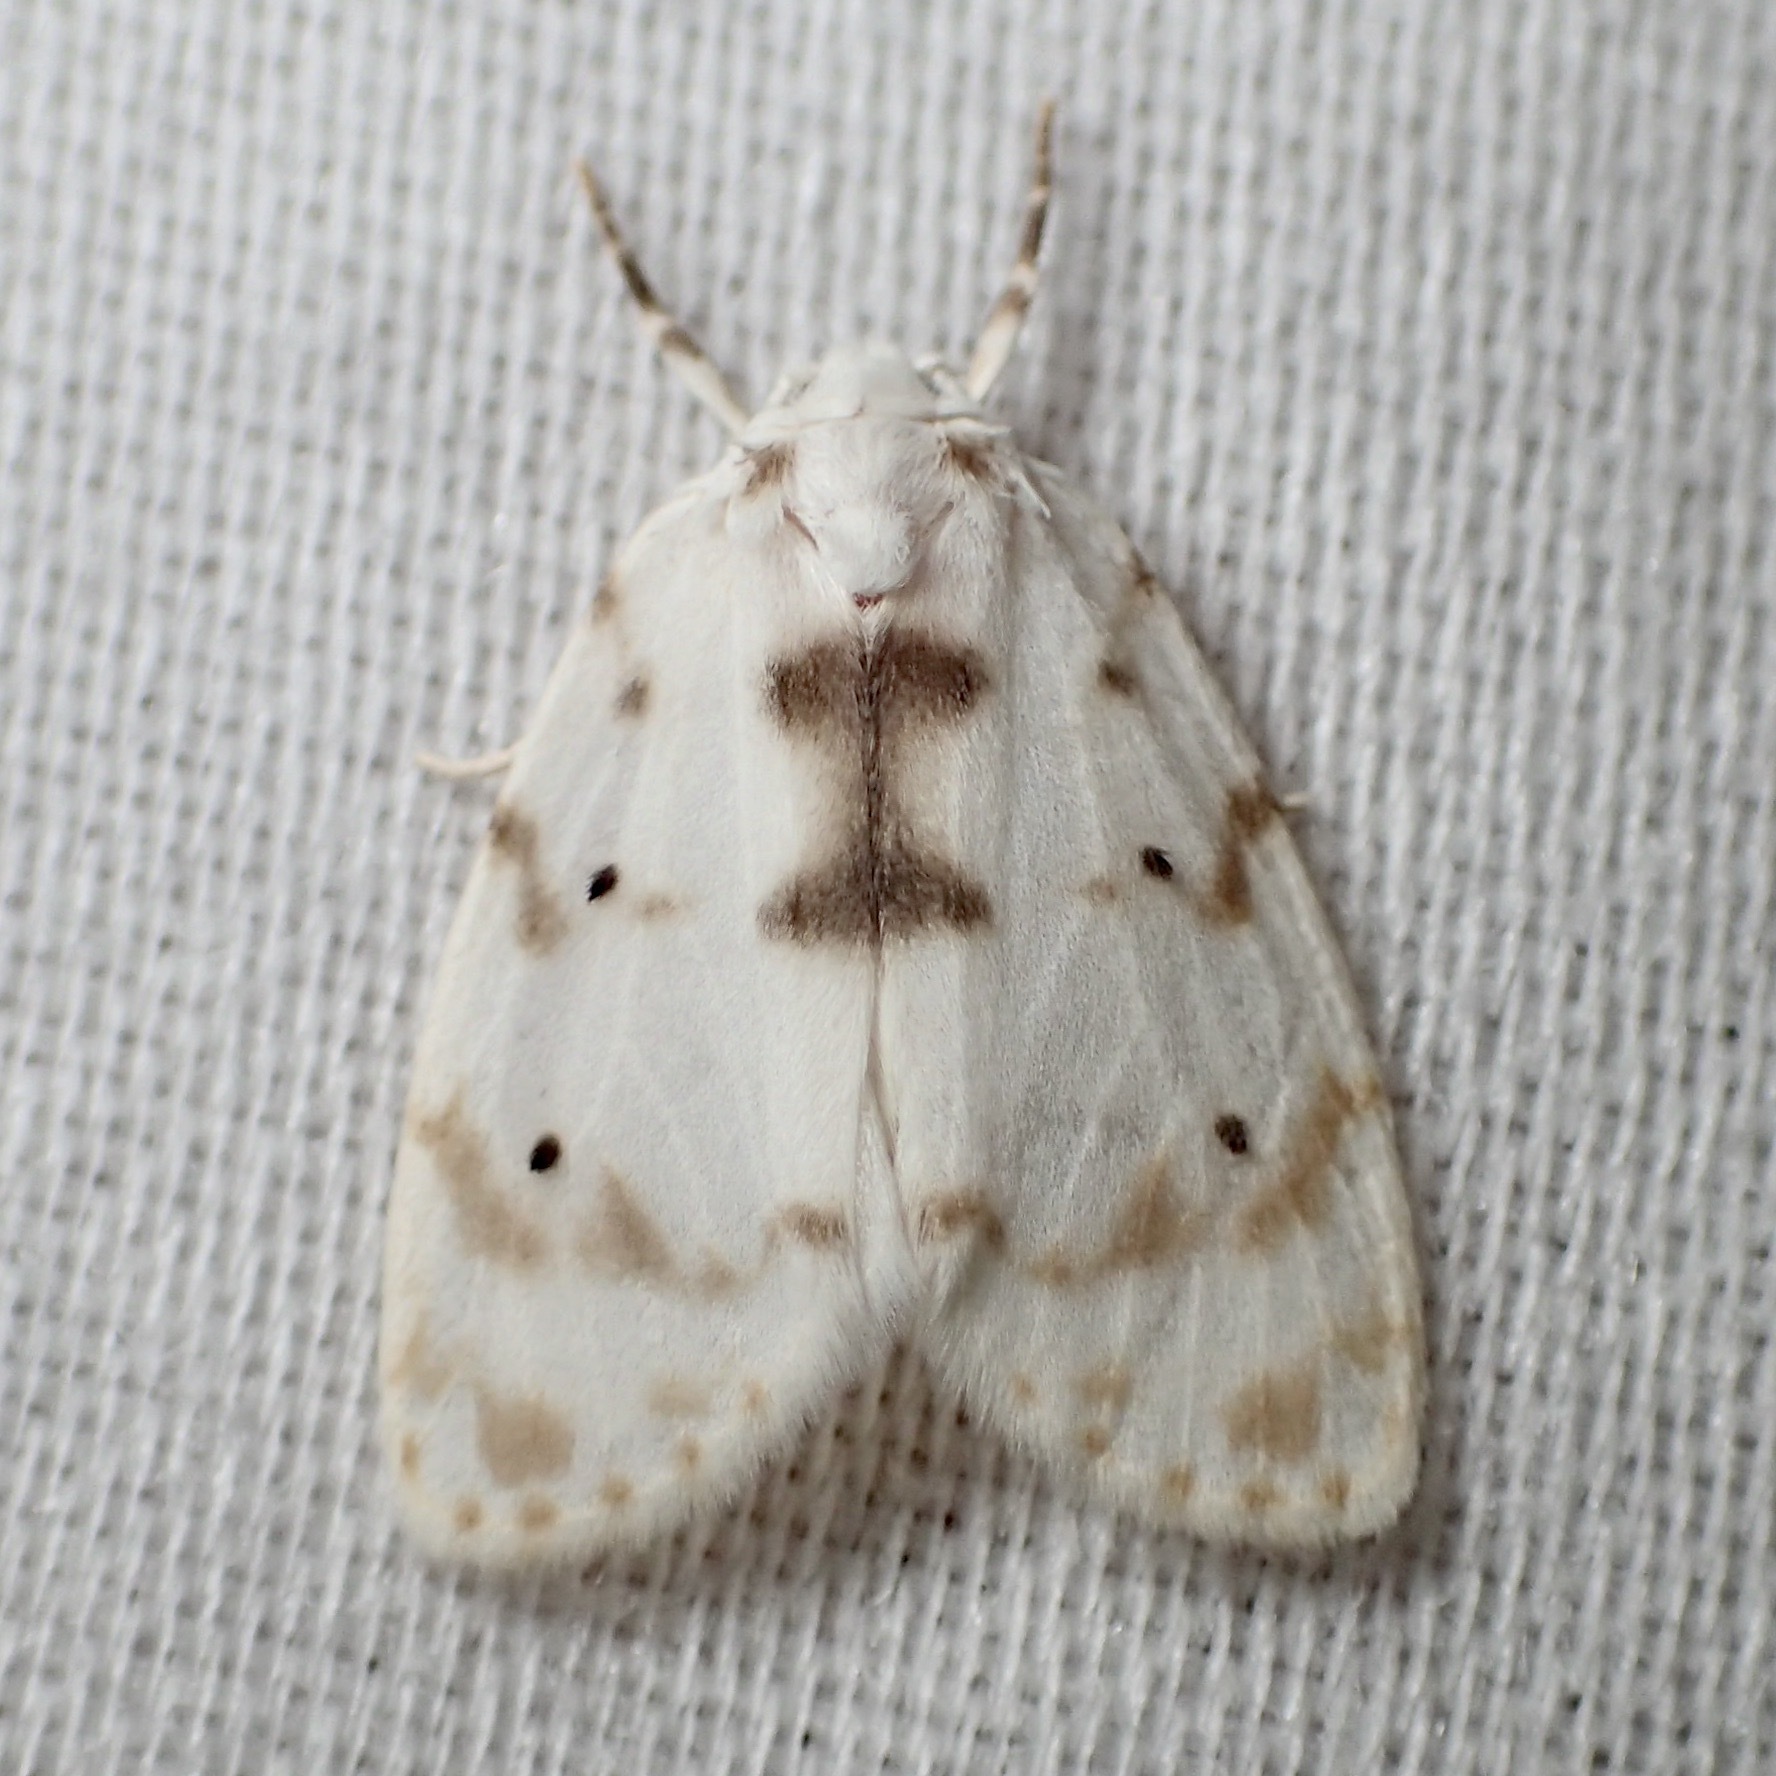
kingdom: Animalia
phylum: Arthropoda
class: Insecta
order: Lepidoptera
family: Erebidae
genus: Schistophleps
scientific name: Schistophleps albida
